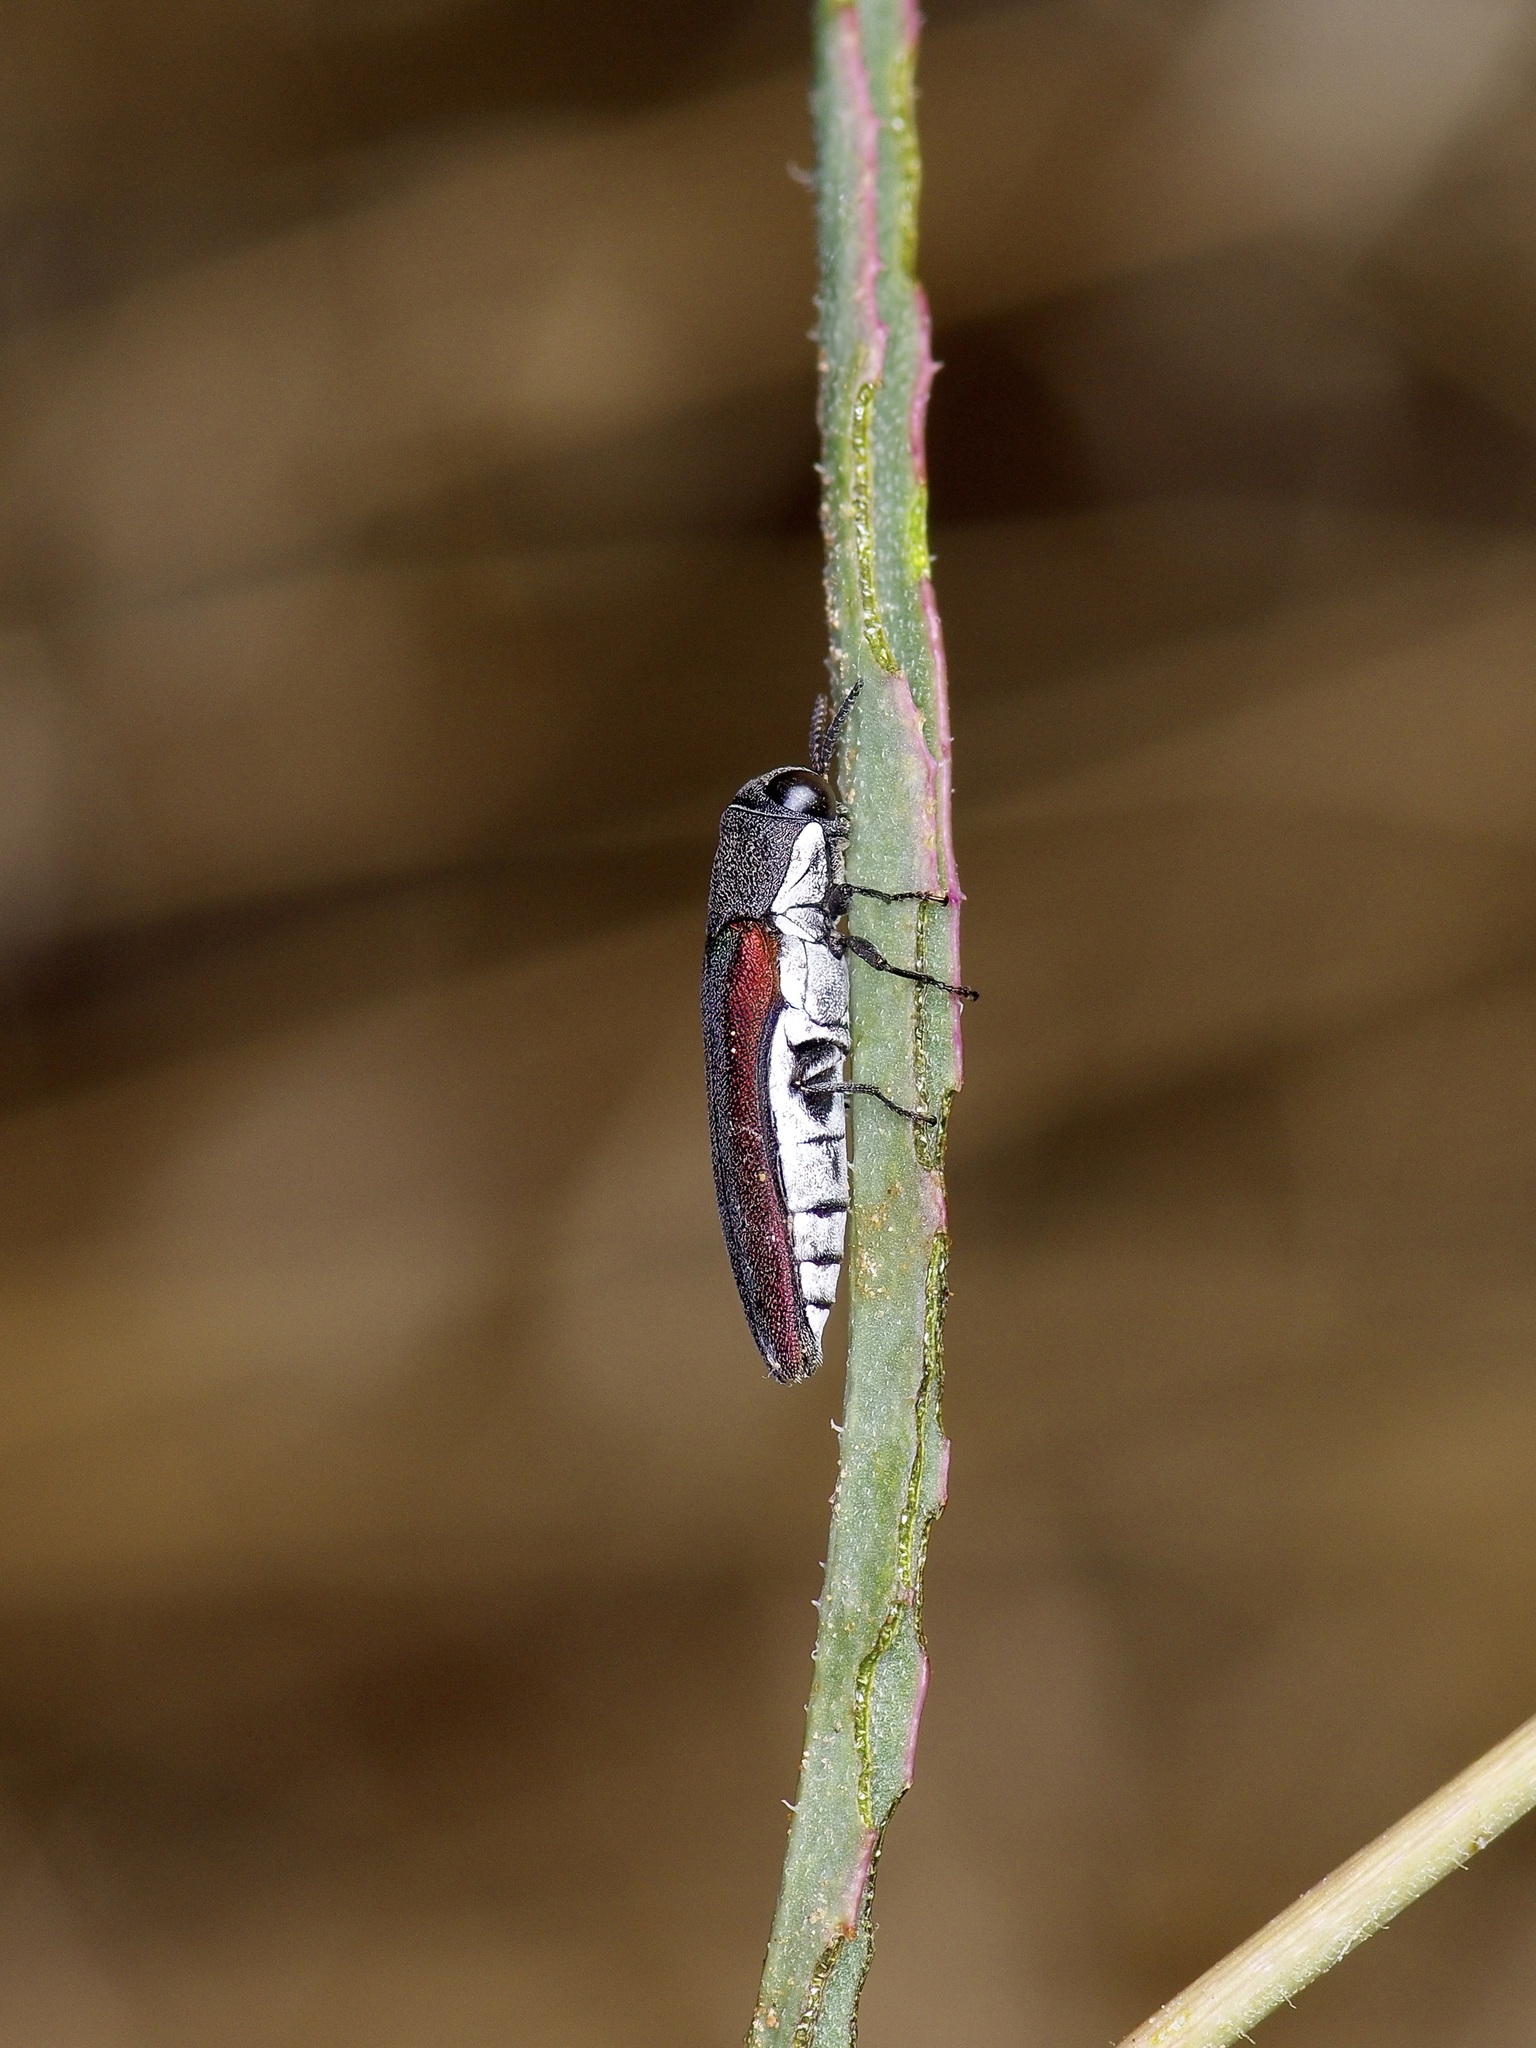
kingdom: Animalia
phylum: Arthropoda
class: Insecta
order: Coleoptera
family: Buprestidae
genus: Agrilus
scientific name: Agrilus pulchellus
